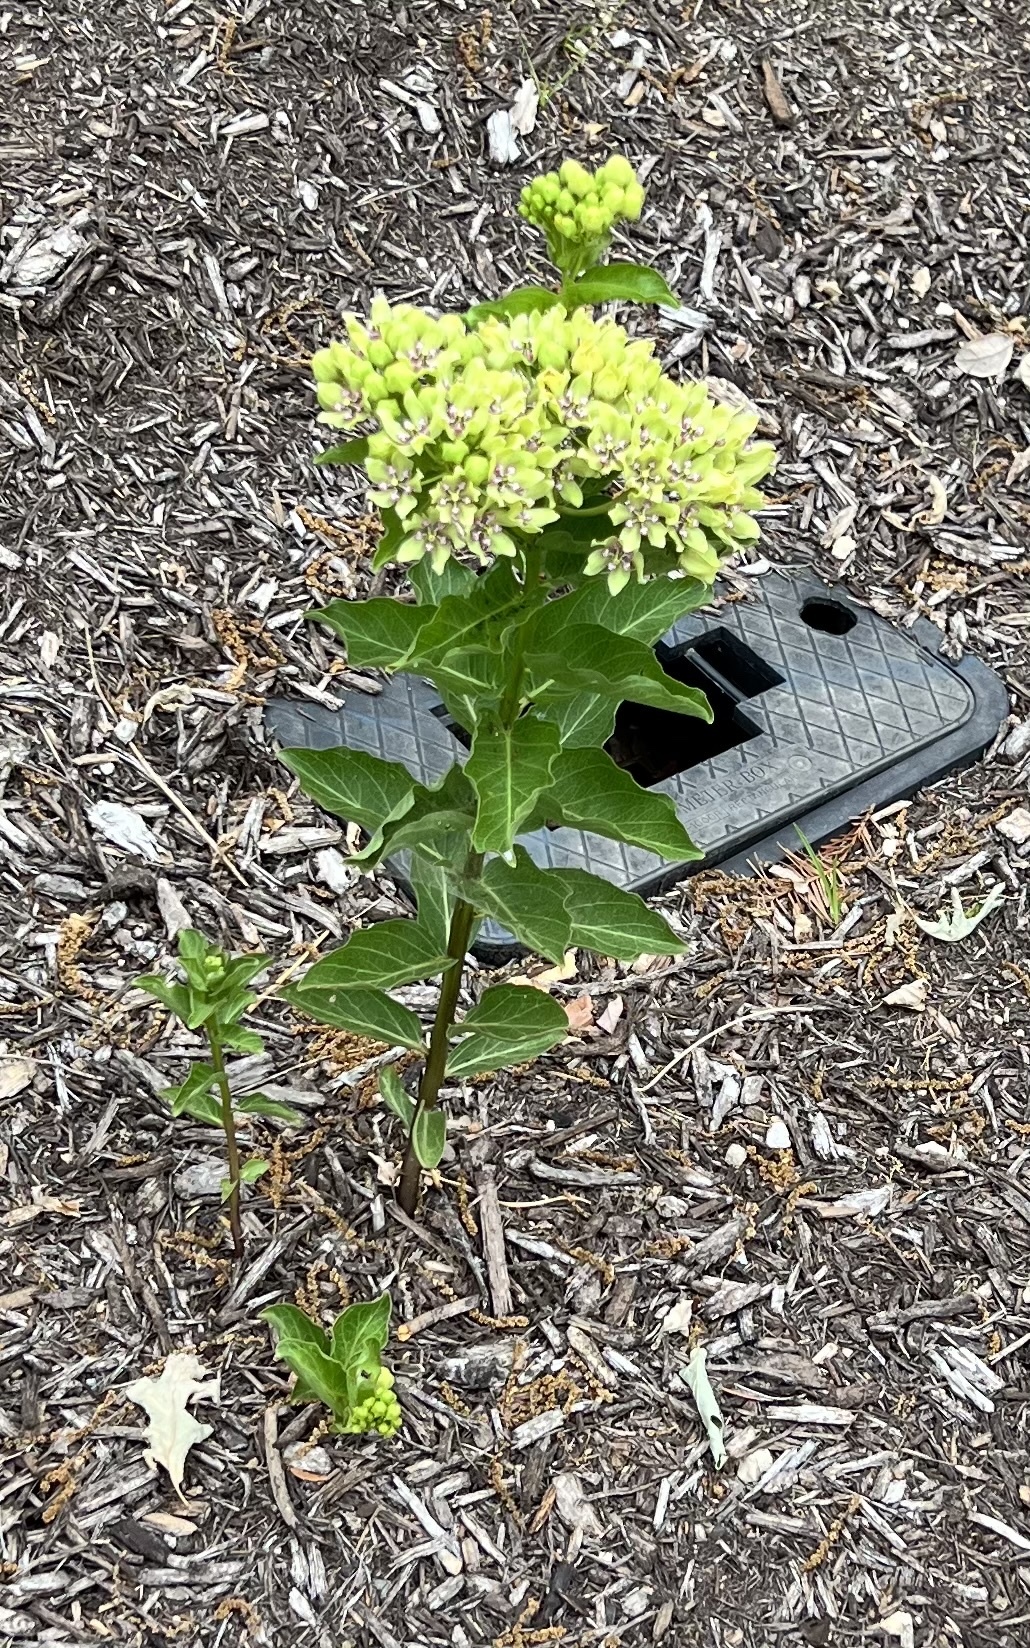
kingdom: Plantae
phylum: Tracheophyta
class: Magnoliopsida
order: Gentianales
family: Apocynaceae
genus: Asclepias
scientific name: Asclepias viridis
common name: Antelope-horns
